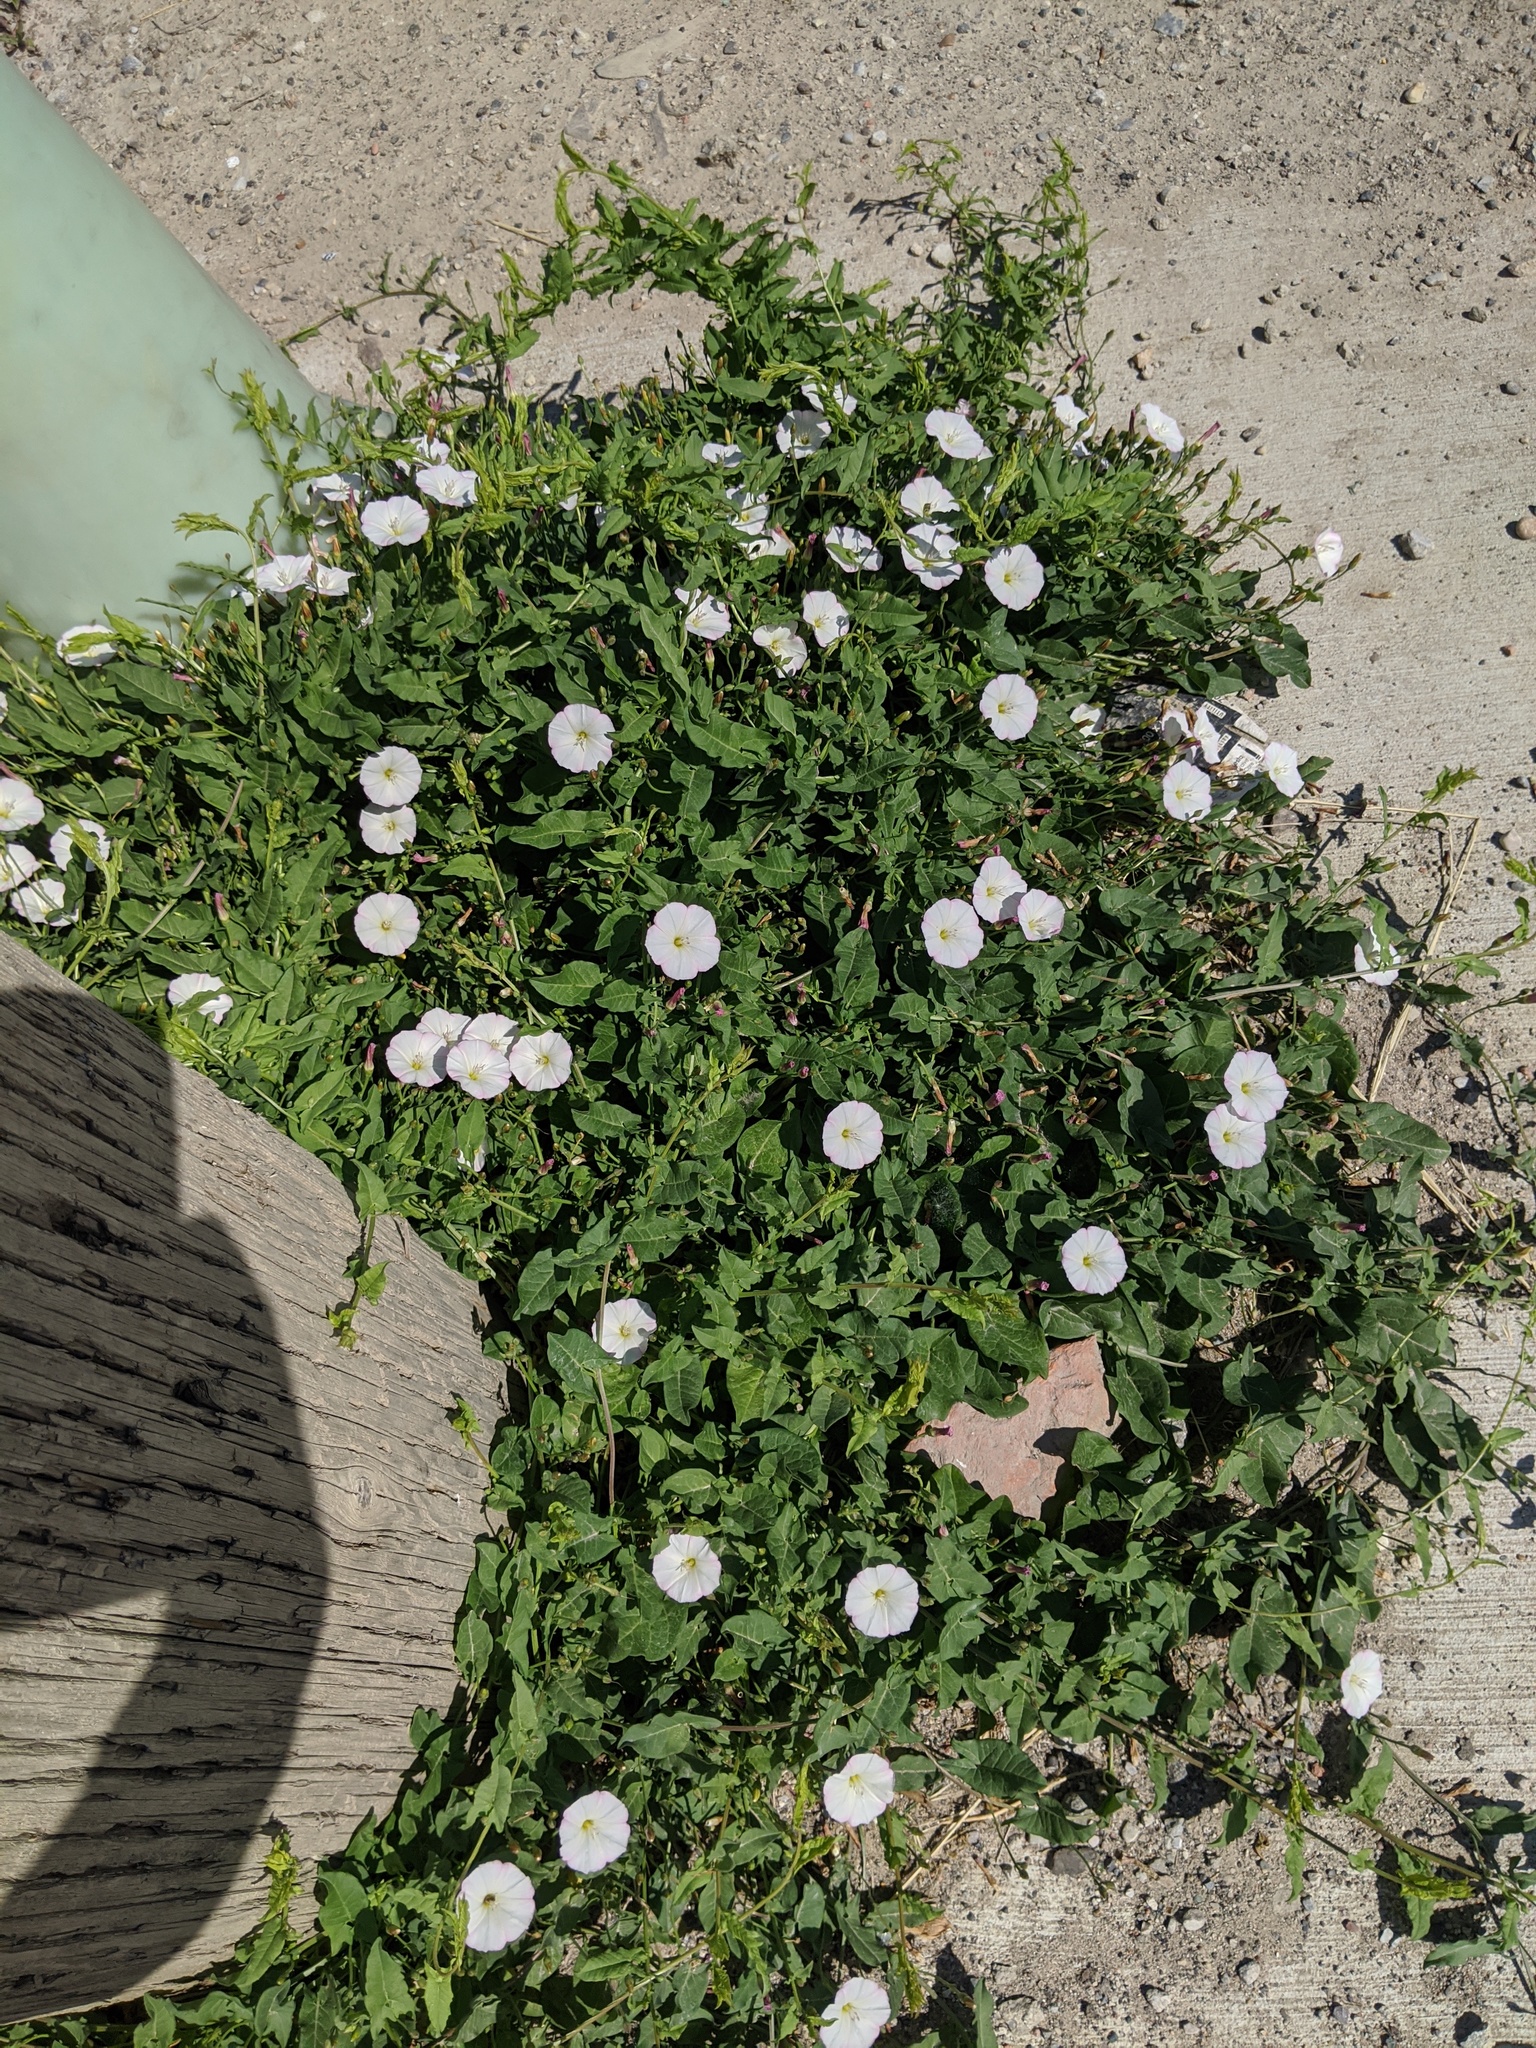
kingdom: Plantae
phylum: Tracheophyta
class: Magnoliopsida
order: Solanales
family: Convolvulaceae
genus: Convolvulus
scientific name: Convolvulus arvensis
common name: Field bindweed
